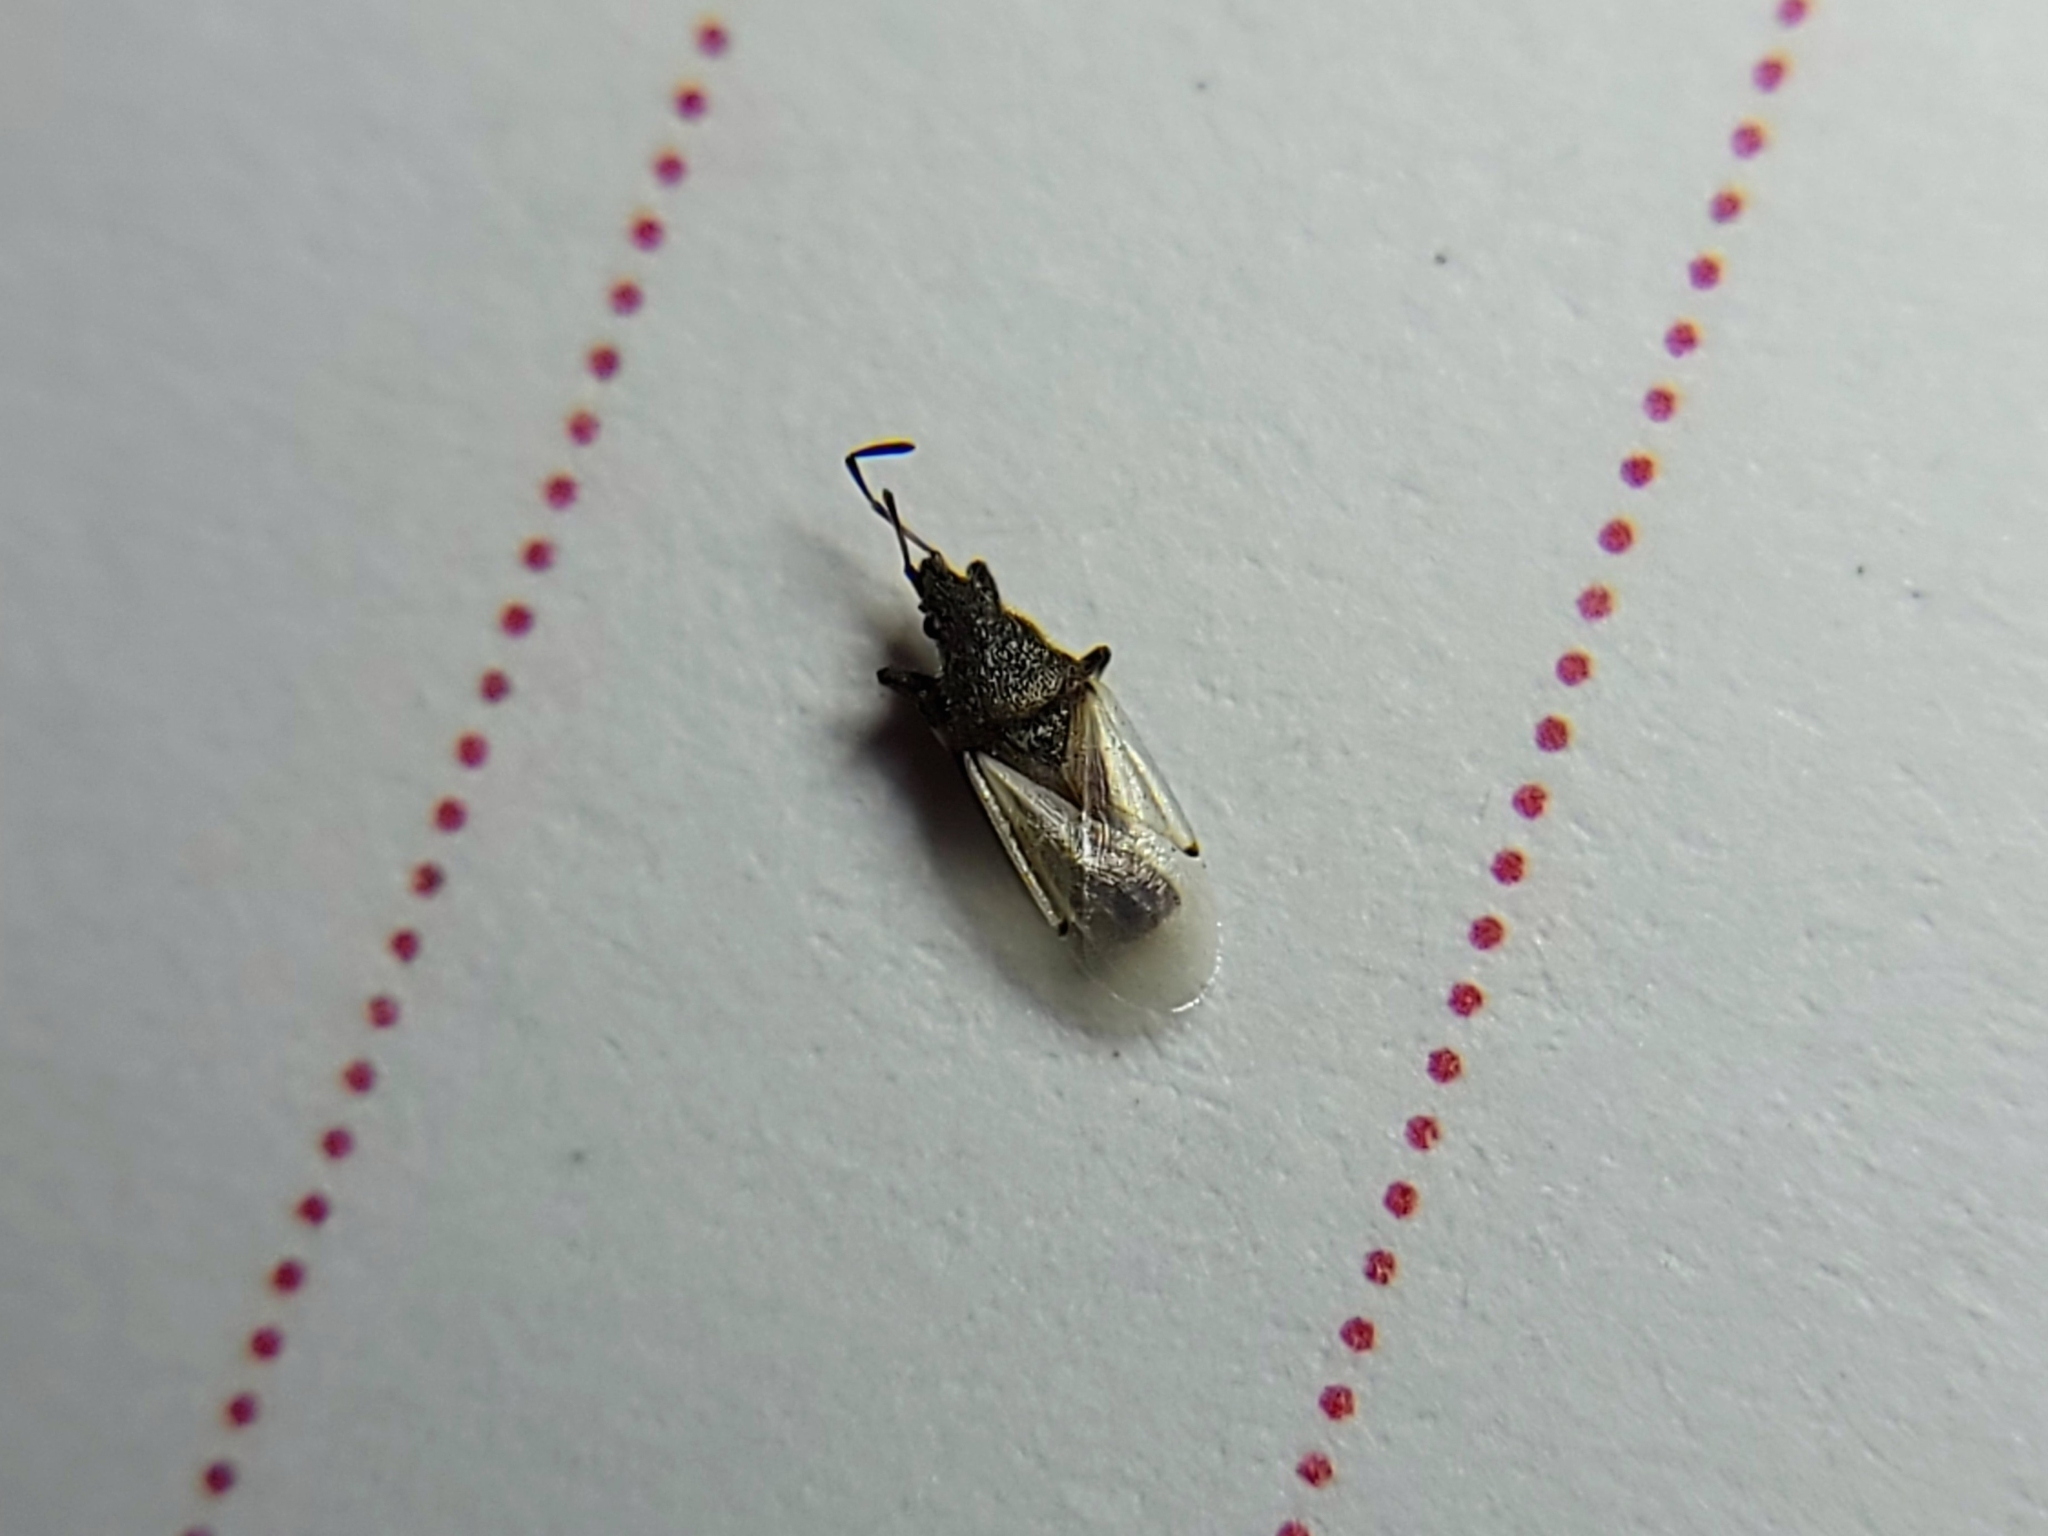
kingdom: Animalia
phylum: Arthropoda
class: Insecta
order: Hemiptera
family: Oxycarenidae
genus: Oxycarenus
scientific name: Oxycarenus hyalinipennis
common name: Cotton seed bug
